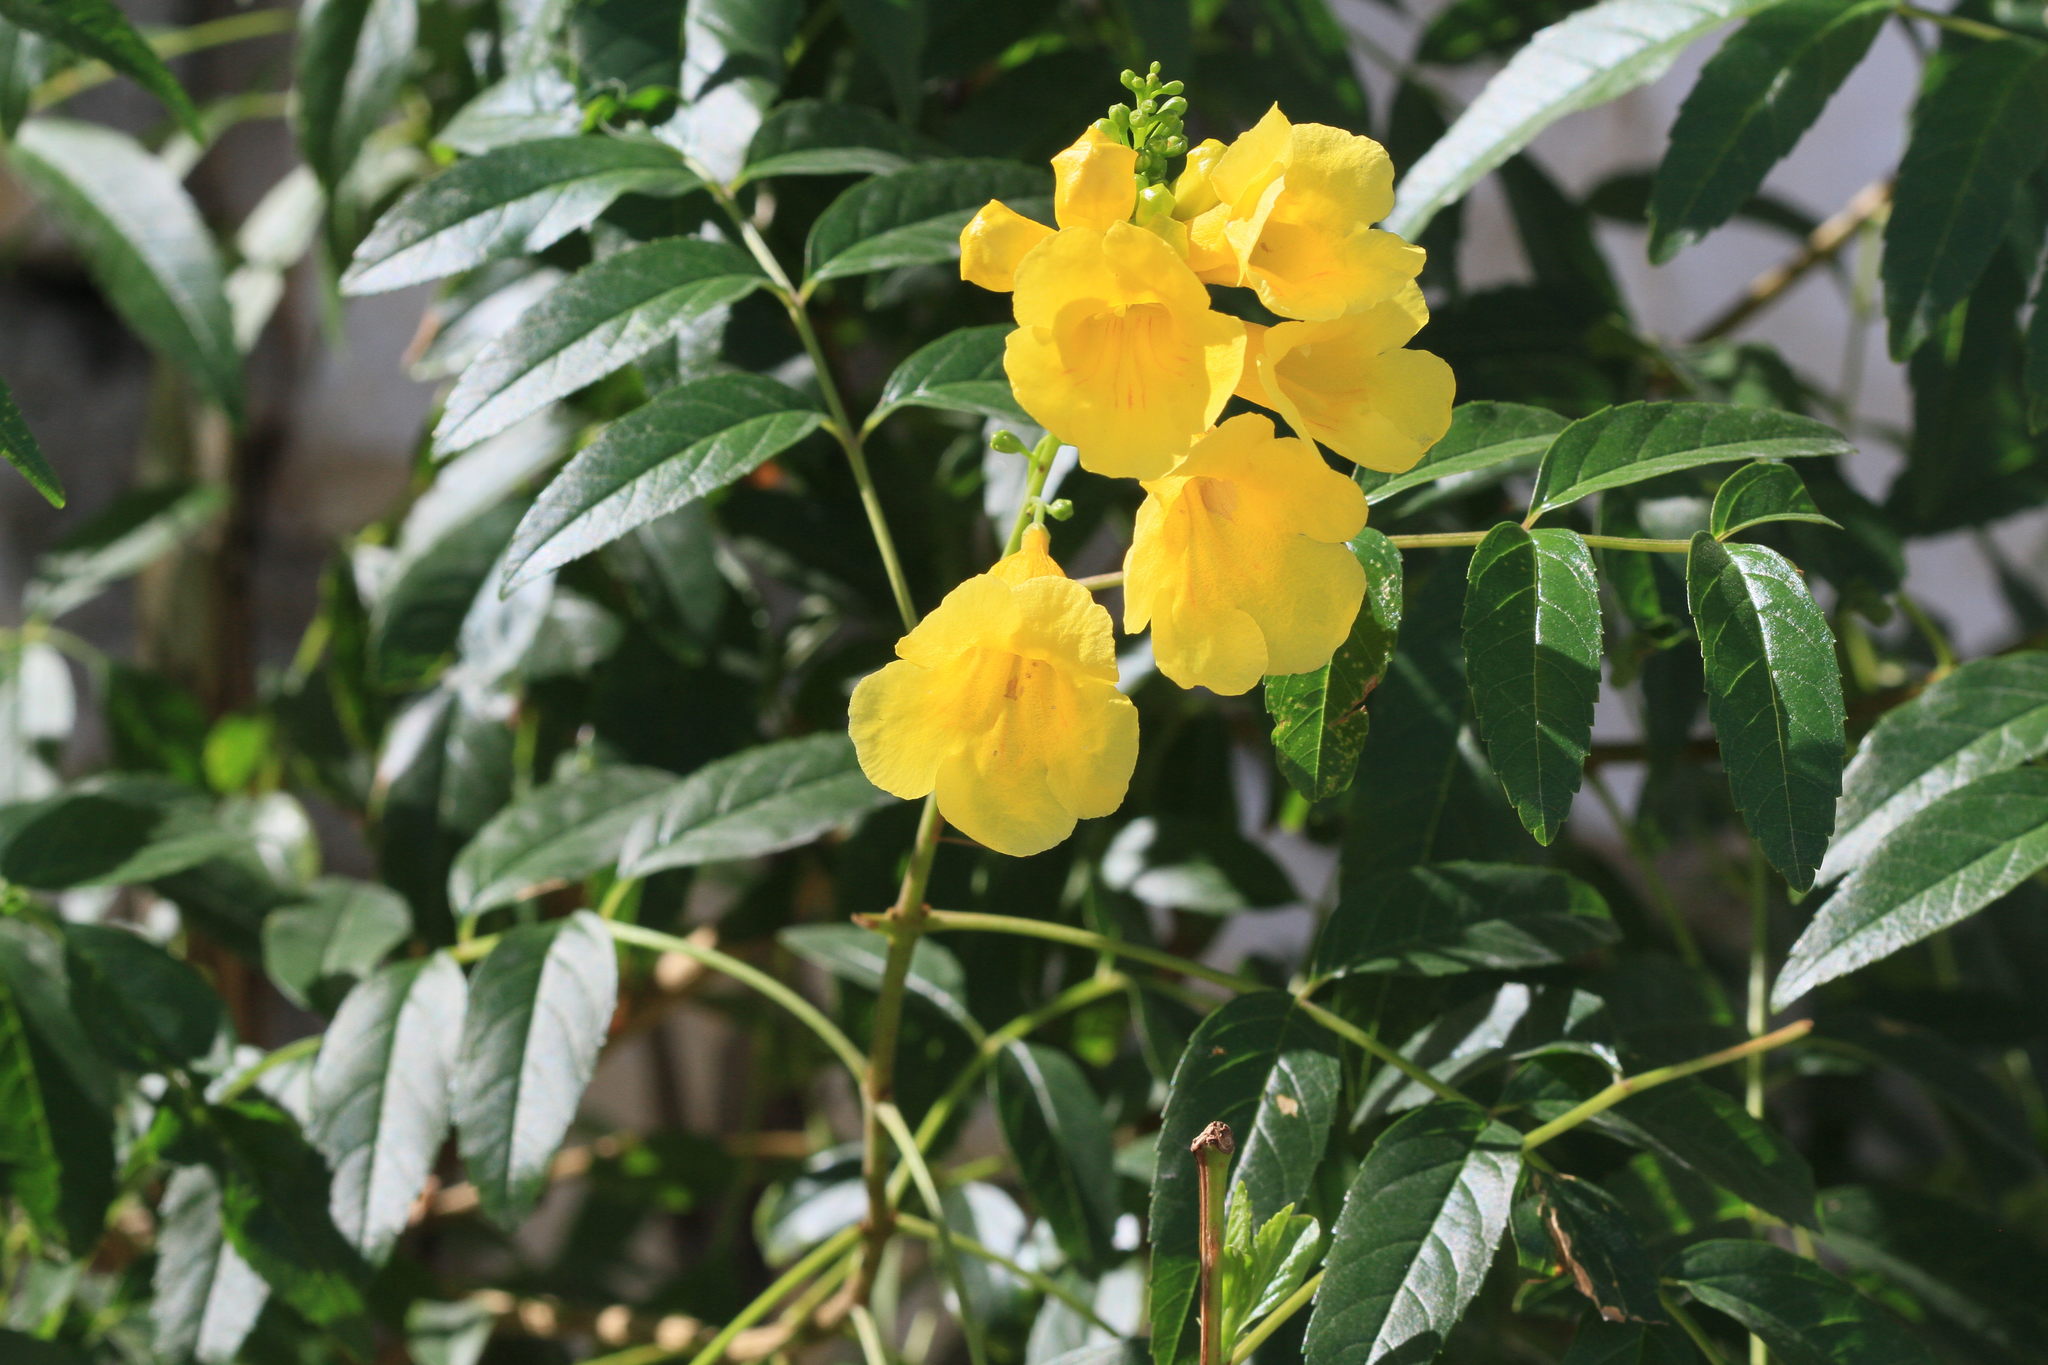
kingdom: Plantae
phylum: Tracheophyta
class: Magnoliopsida
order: Lamiales
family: Bignoniaceae
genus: Tecoma
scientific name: Tecoma stans
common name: Yellow trumpetbush
